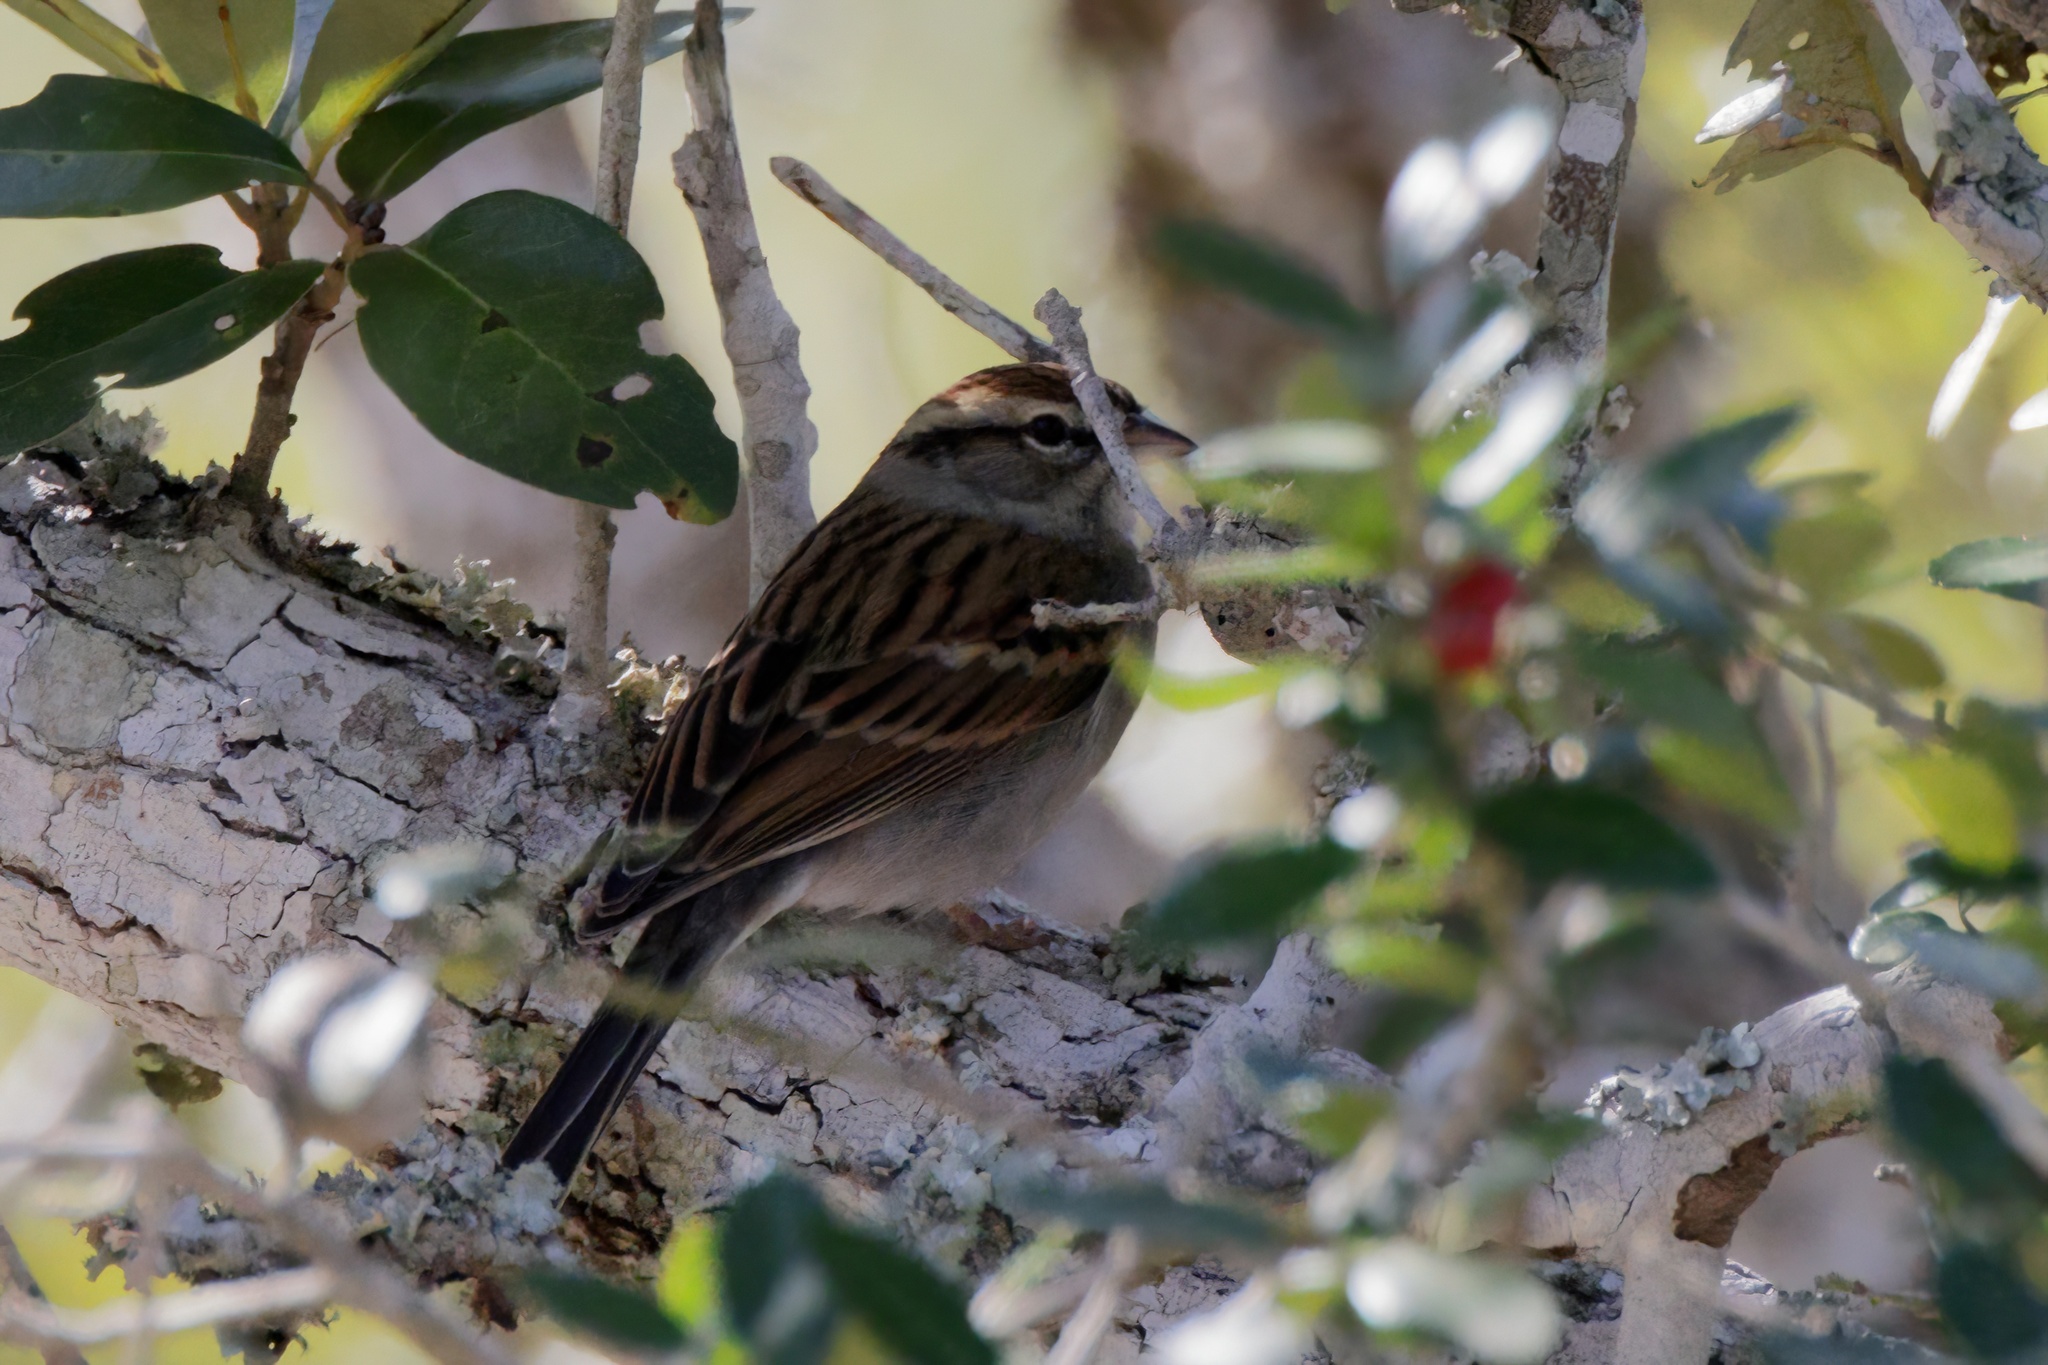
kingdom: Animalia
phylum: Chordata
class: Aves
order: Passeriformes
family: Passerellidae
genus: Spizella
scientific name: Spizella passerina
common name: Chipping sparrow
